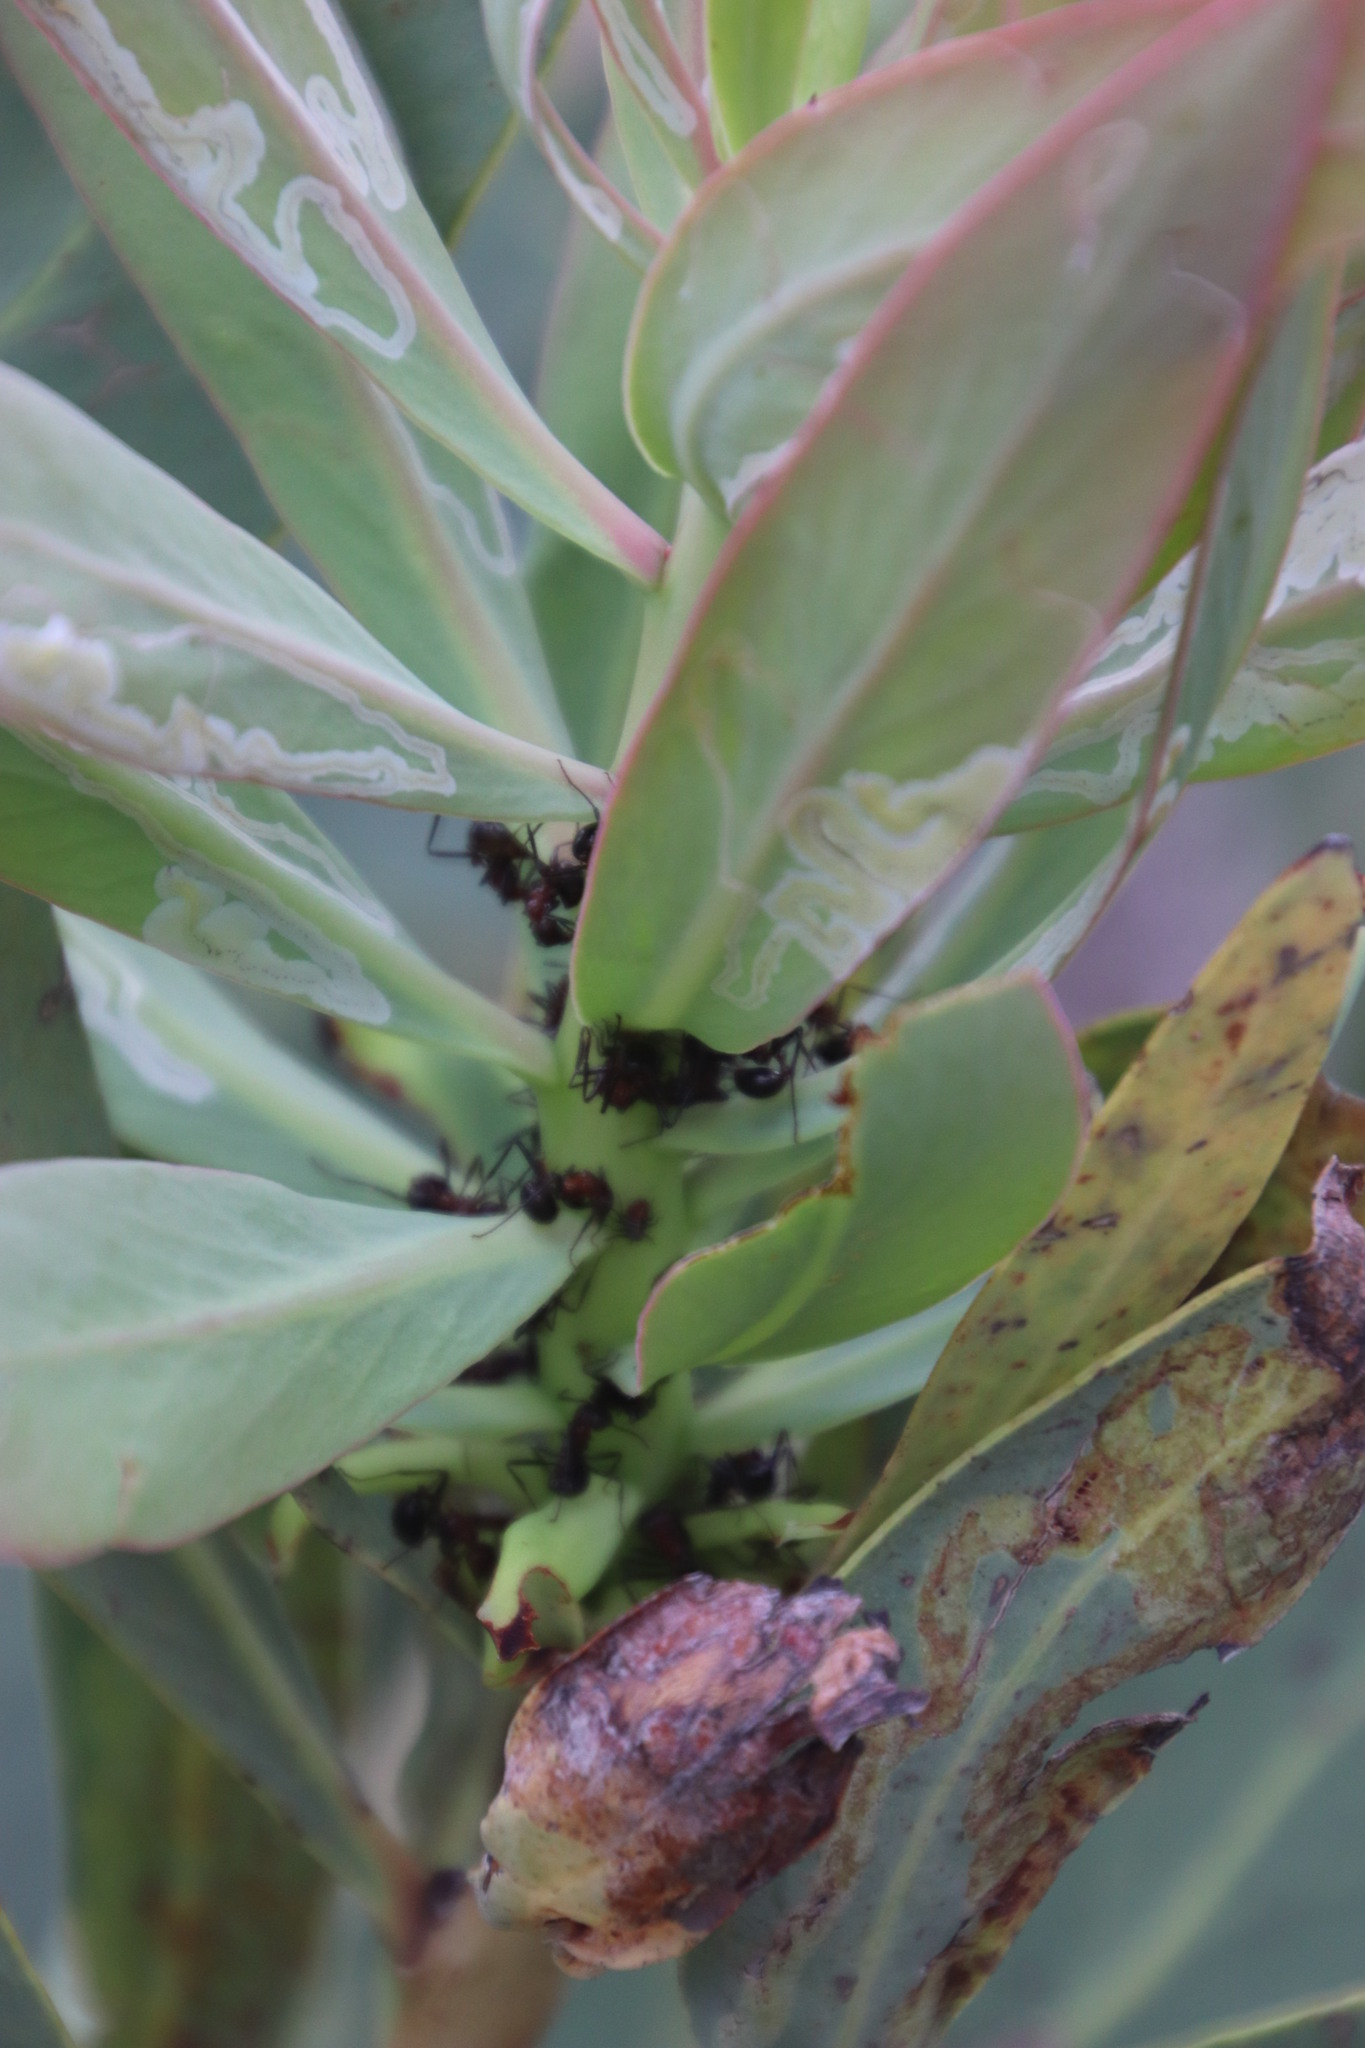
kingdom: Plantae
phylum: Tracheophyta
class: Magnoliopsida
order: Proteales
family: Proteaceae
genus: Protea
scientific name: Protea caffra
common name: Common sugarbush
